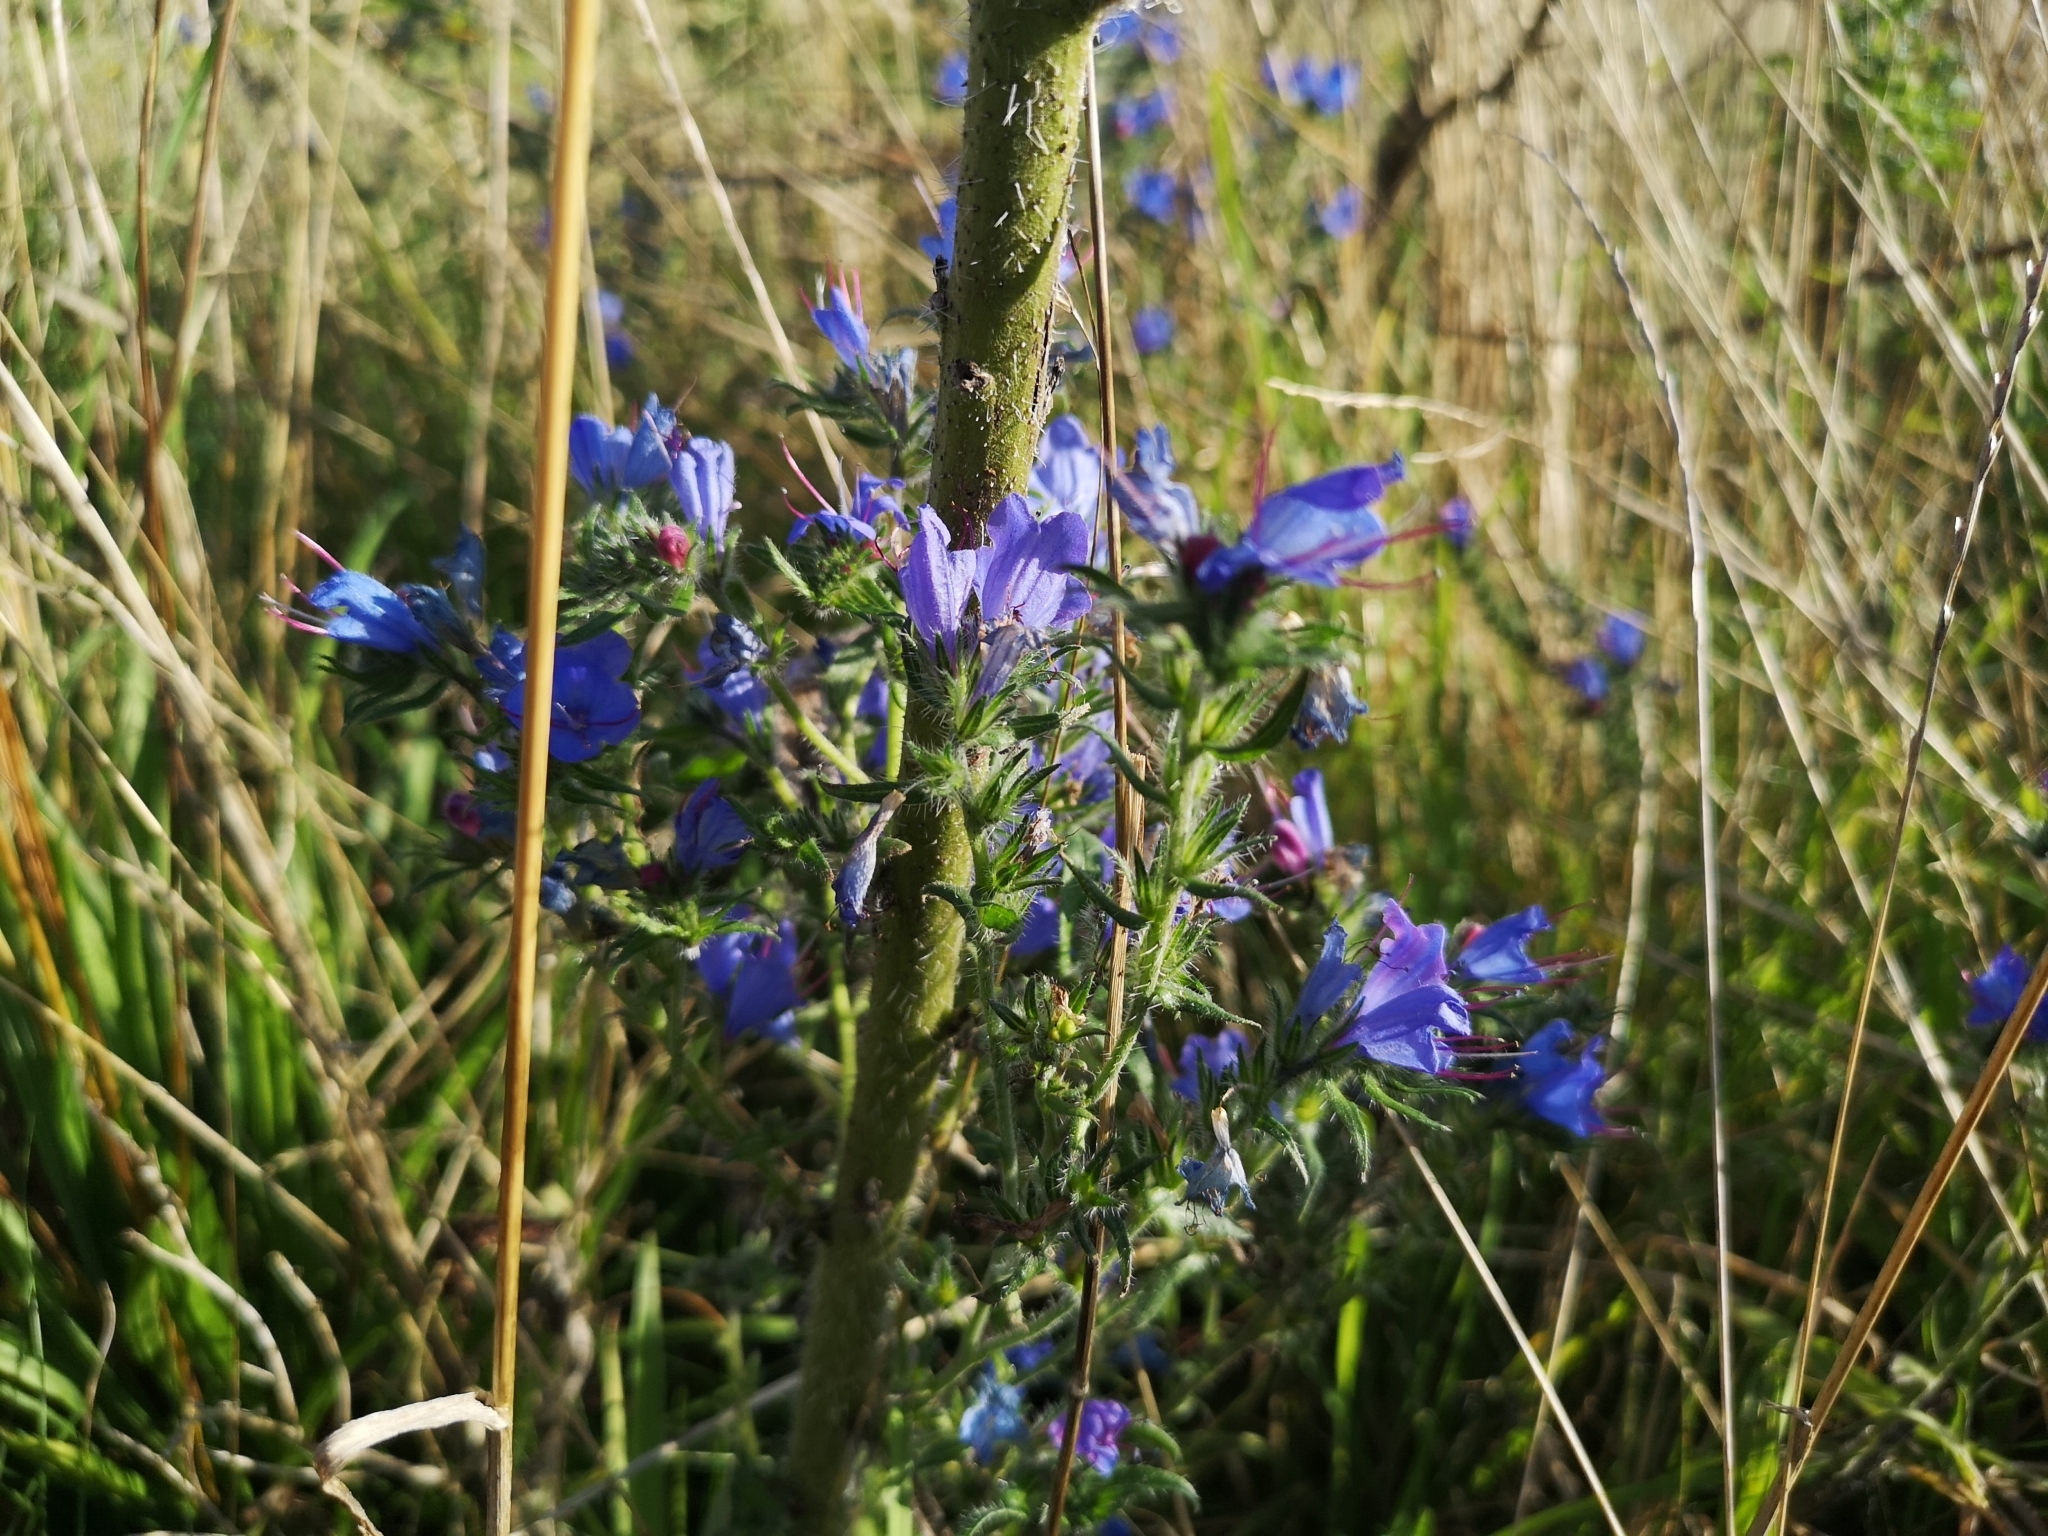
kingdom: Plantae
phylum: Tracheophyta
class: Magnoliopsida
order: Boraginales
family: Boraginaceae
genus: Echium
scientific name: Echium vulgare
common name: Common viper's bugloss
